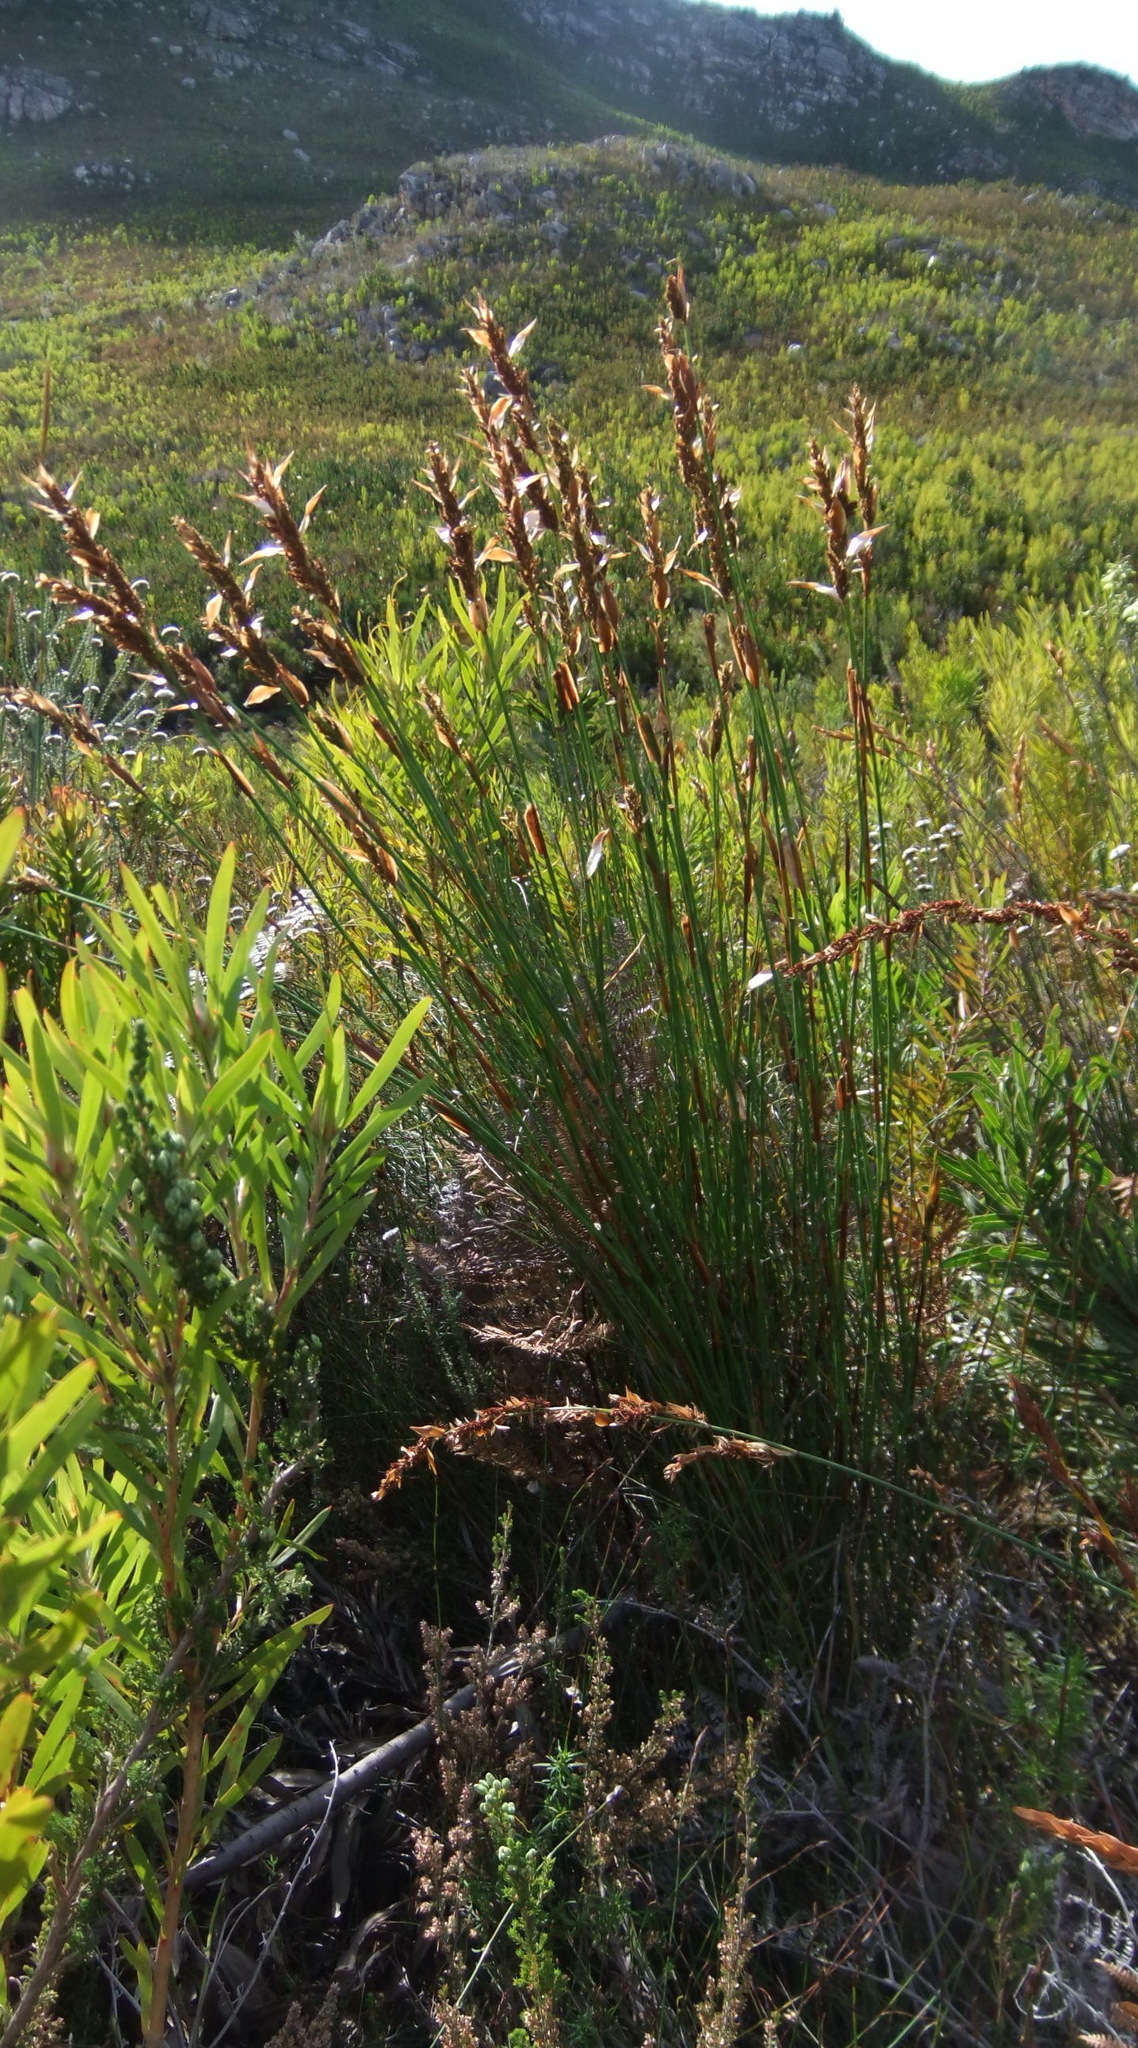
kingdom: Plantae
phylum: Tracheophyta
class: Liliopsida
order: Poales
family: Restionaceae
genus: Elegia
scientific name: Elegia equisetacea
